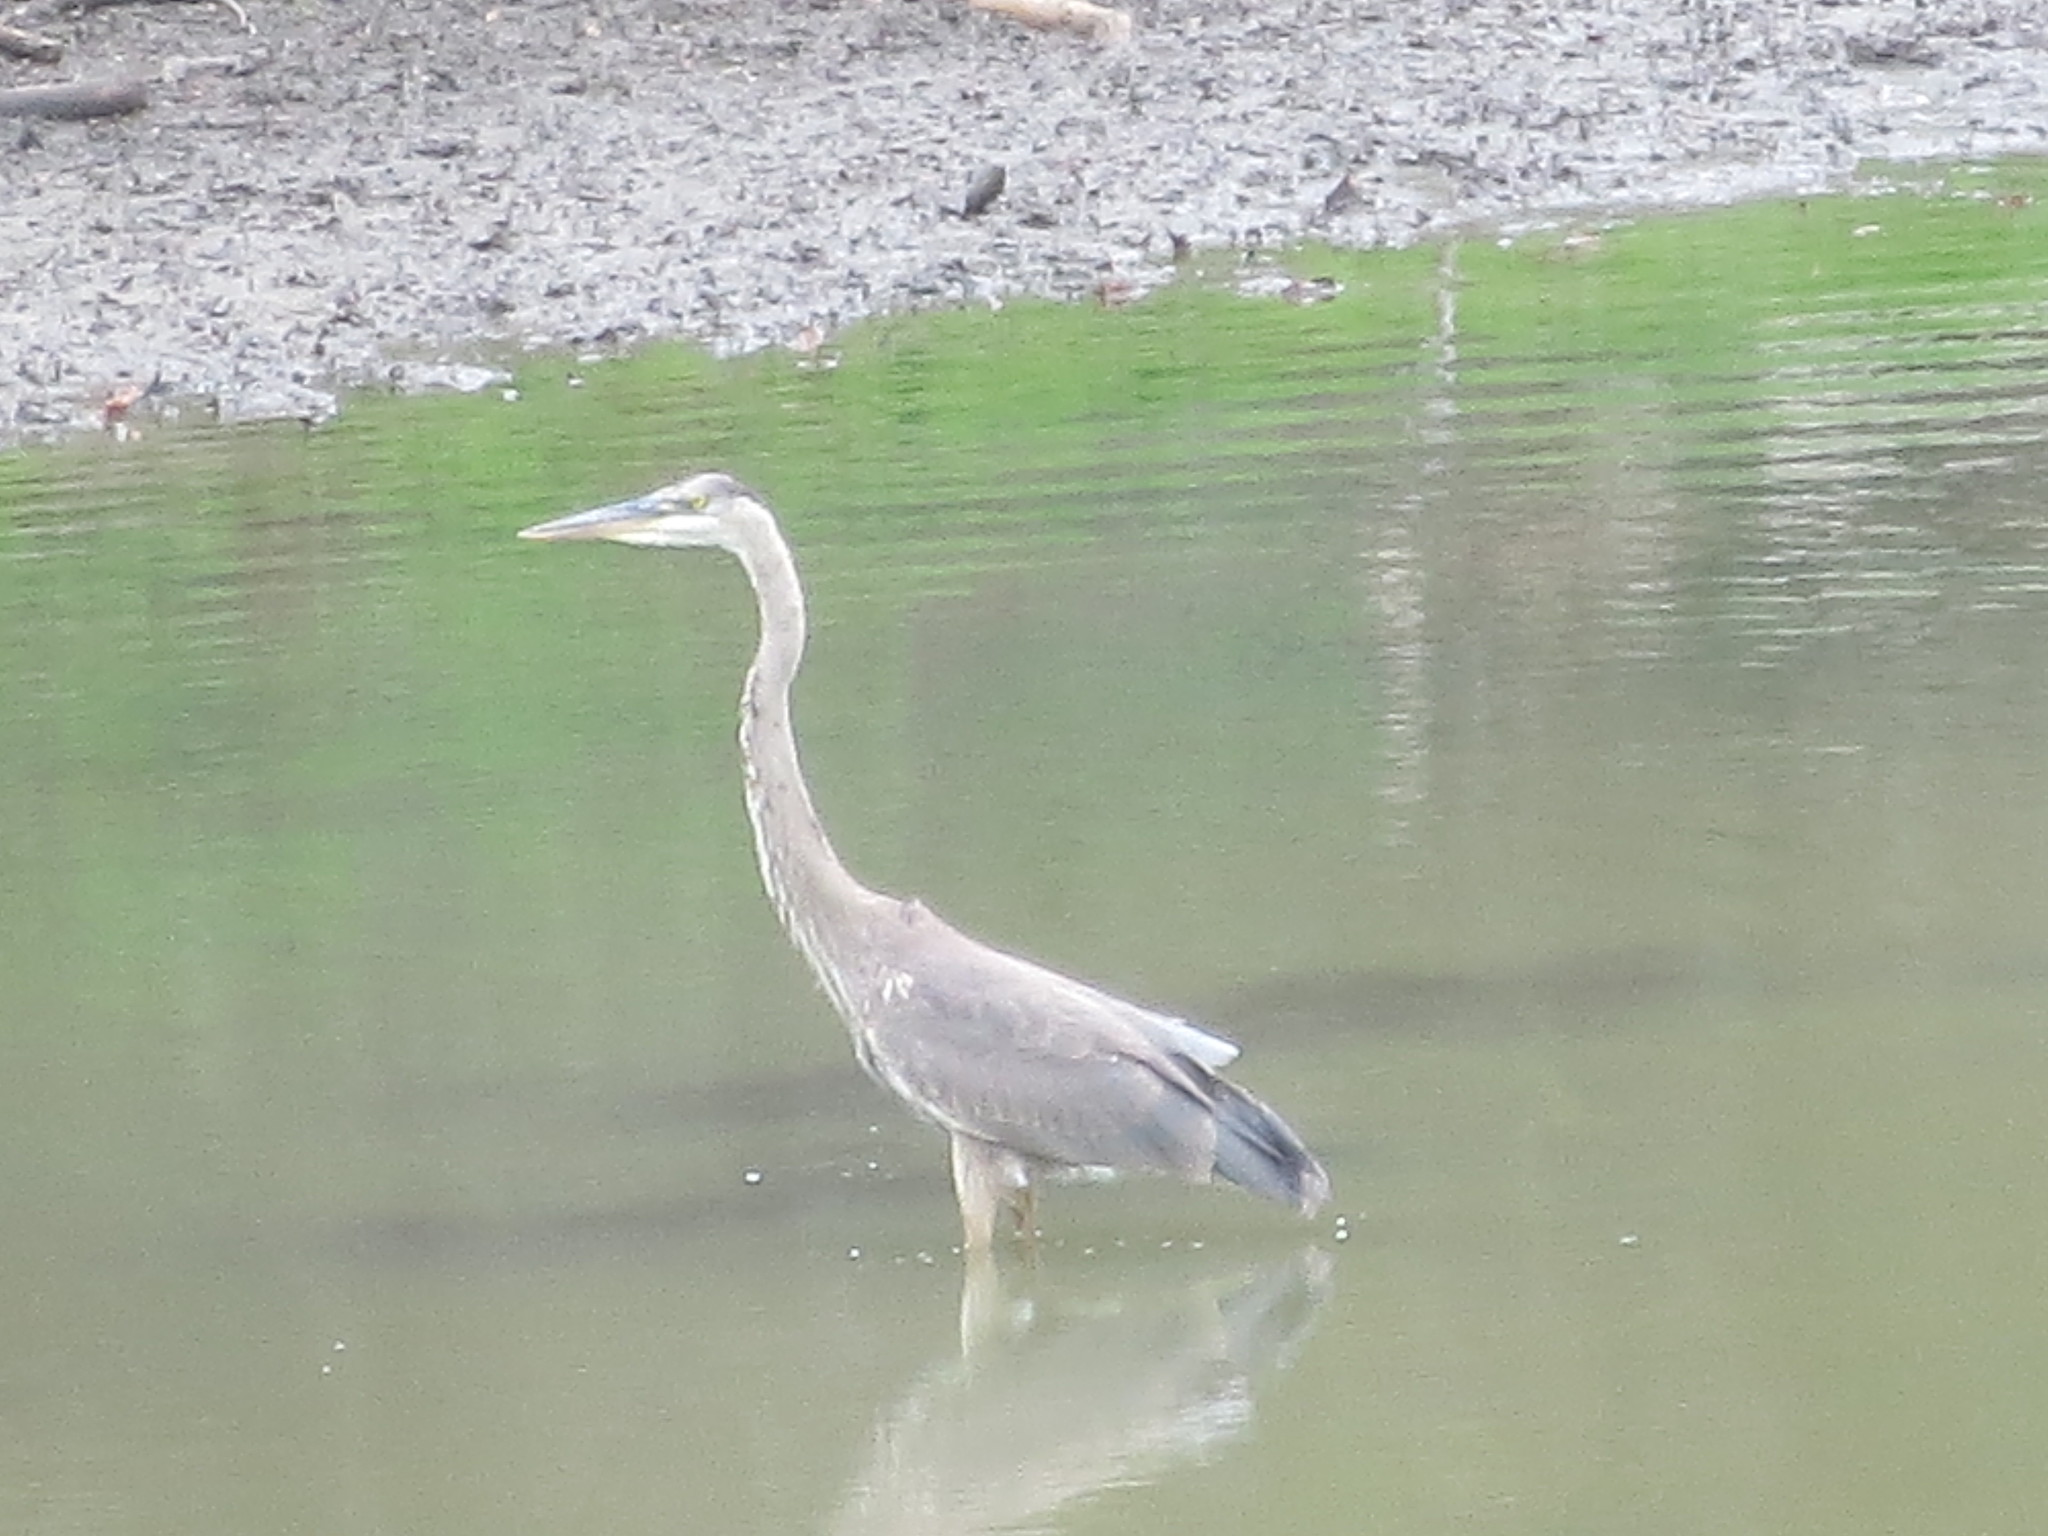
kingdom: Animalia
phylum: Chordata
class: Aves
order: Pelecaniformes
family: Ardeidae
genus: Ardea
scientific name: Ardea herodias
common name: Great blue heron
